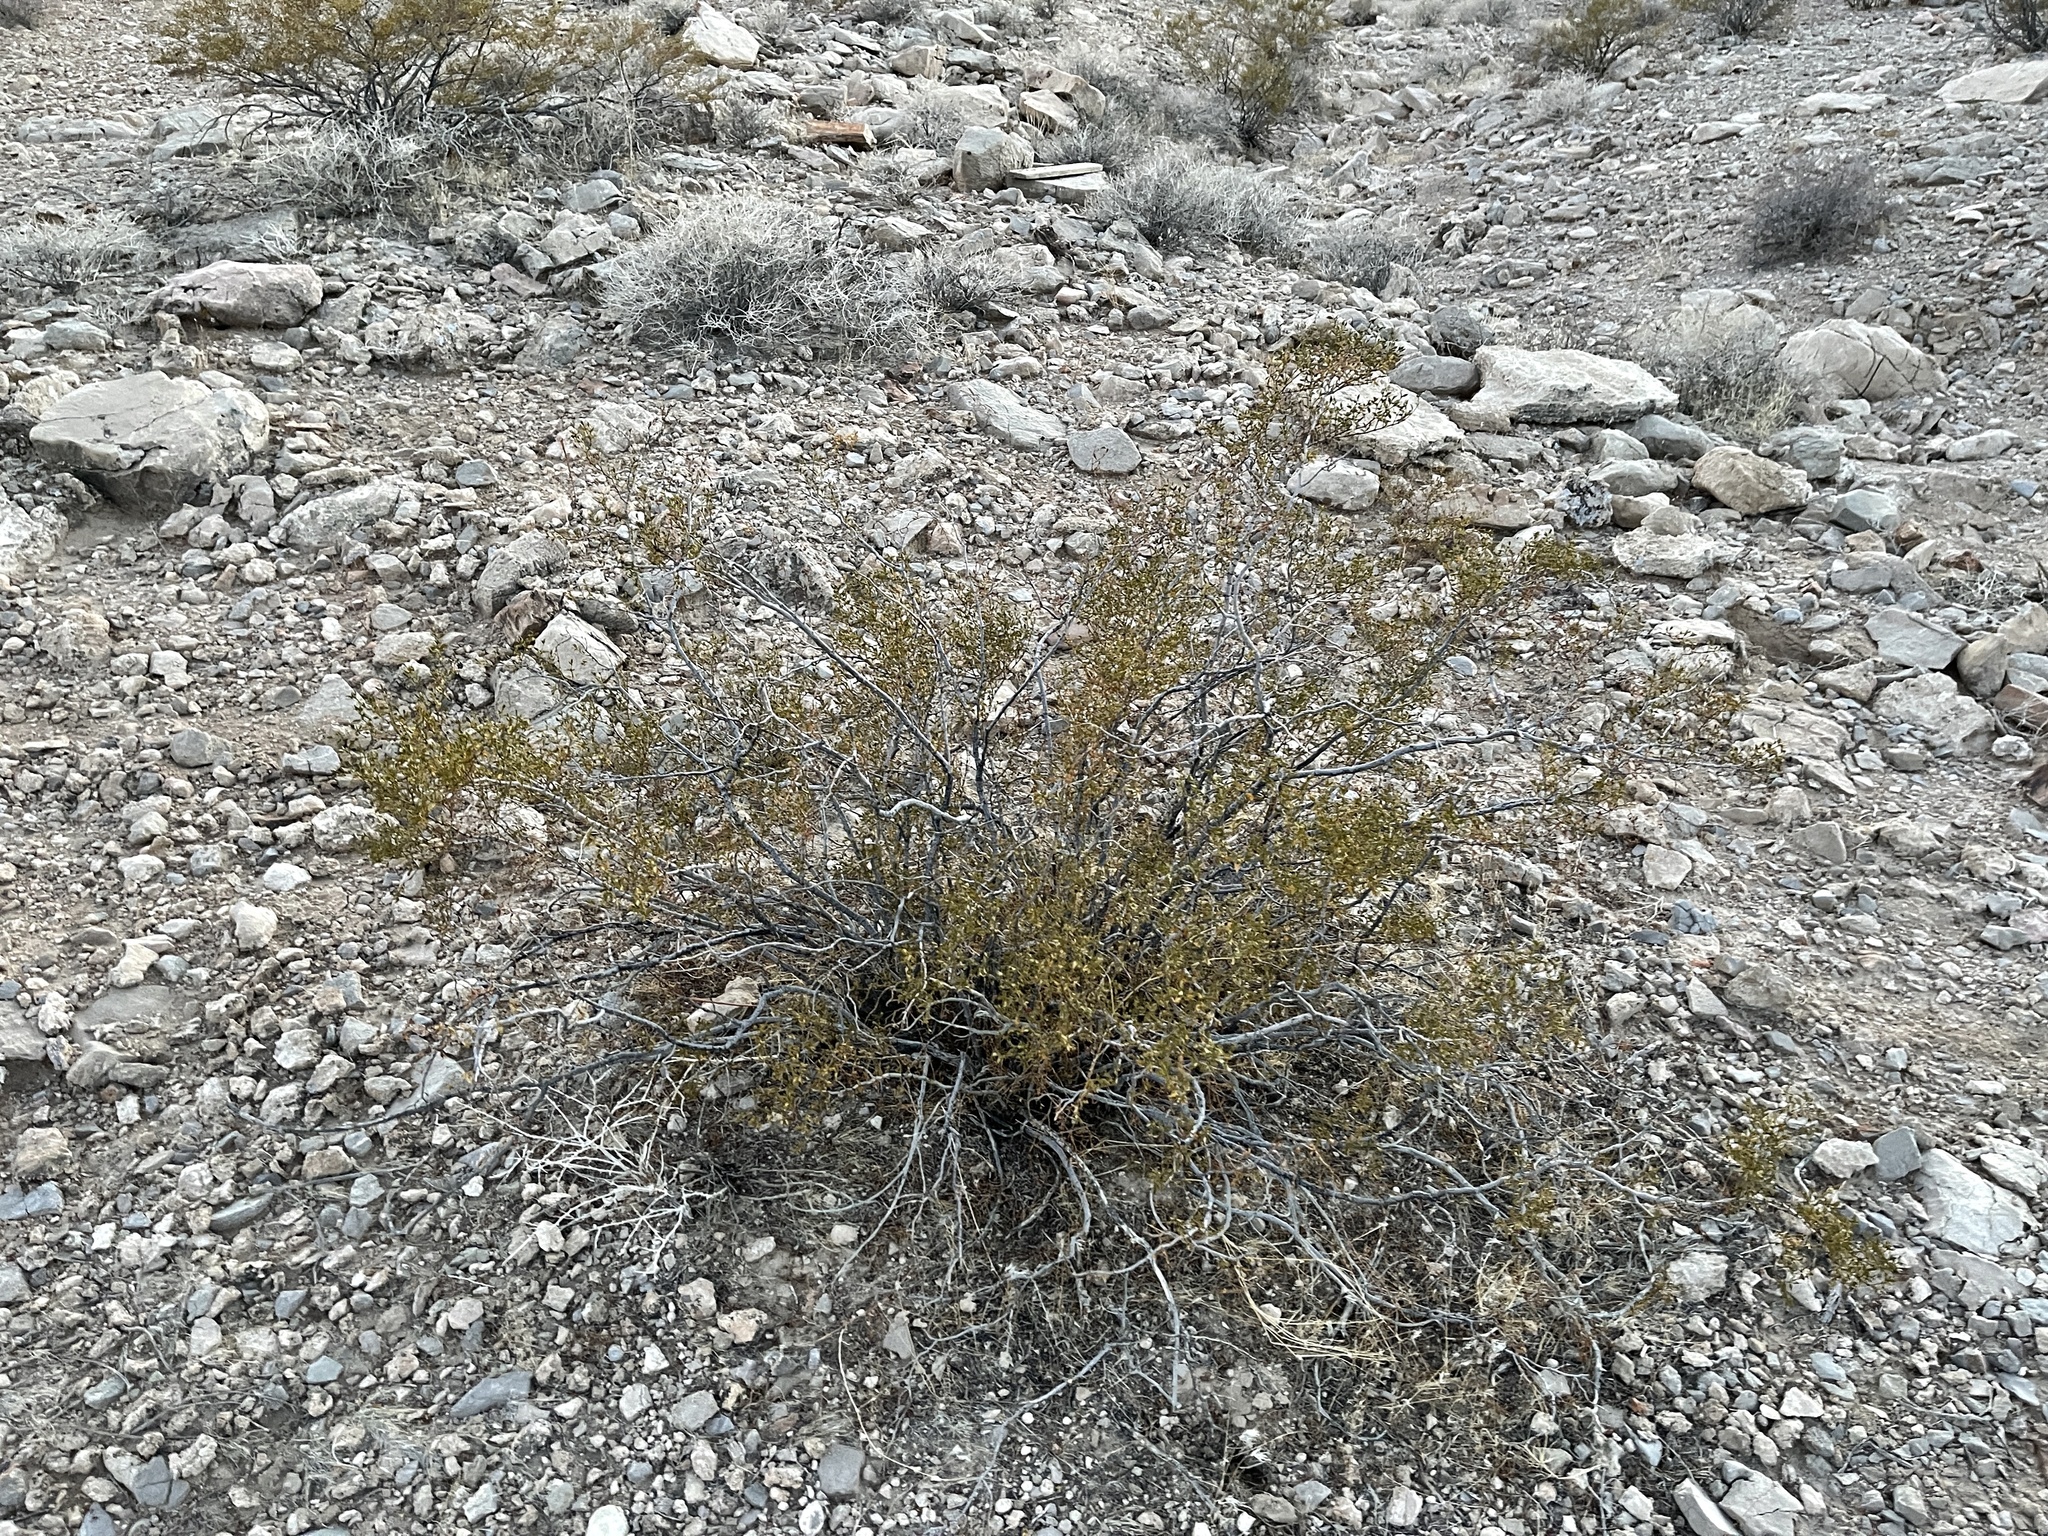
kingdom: Plantae
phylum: Tracheophyta
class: Magnoliopsida
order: Zygophyllales
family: Zygophyllaceae
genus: Larrea
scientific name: Larrea tridentata
